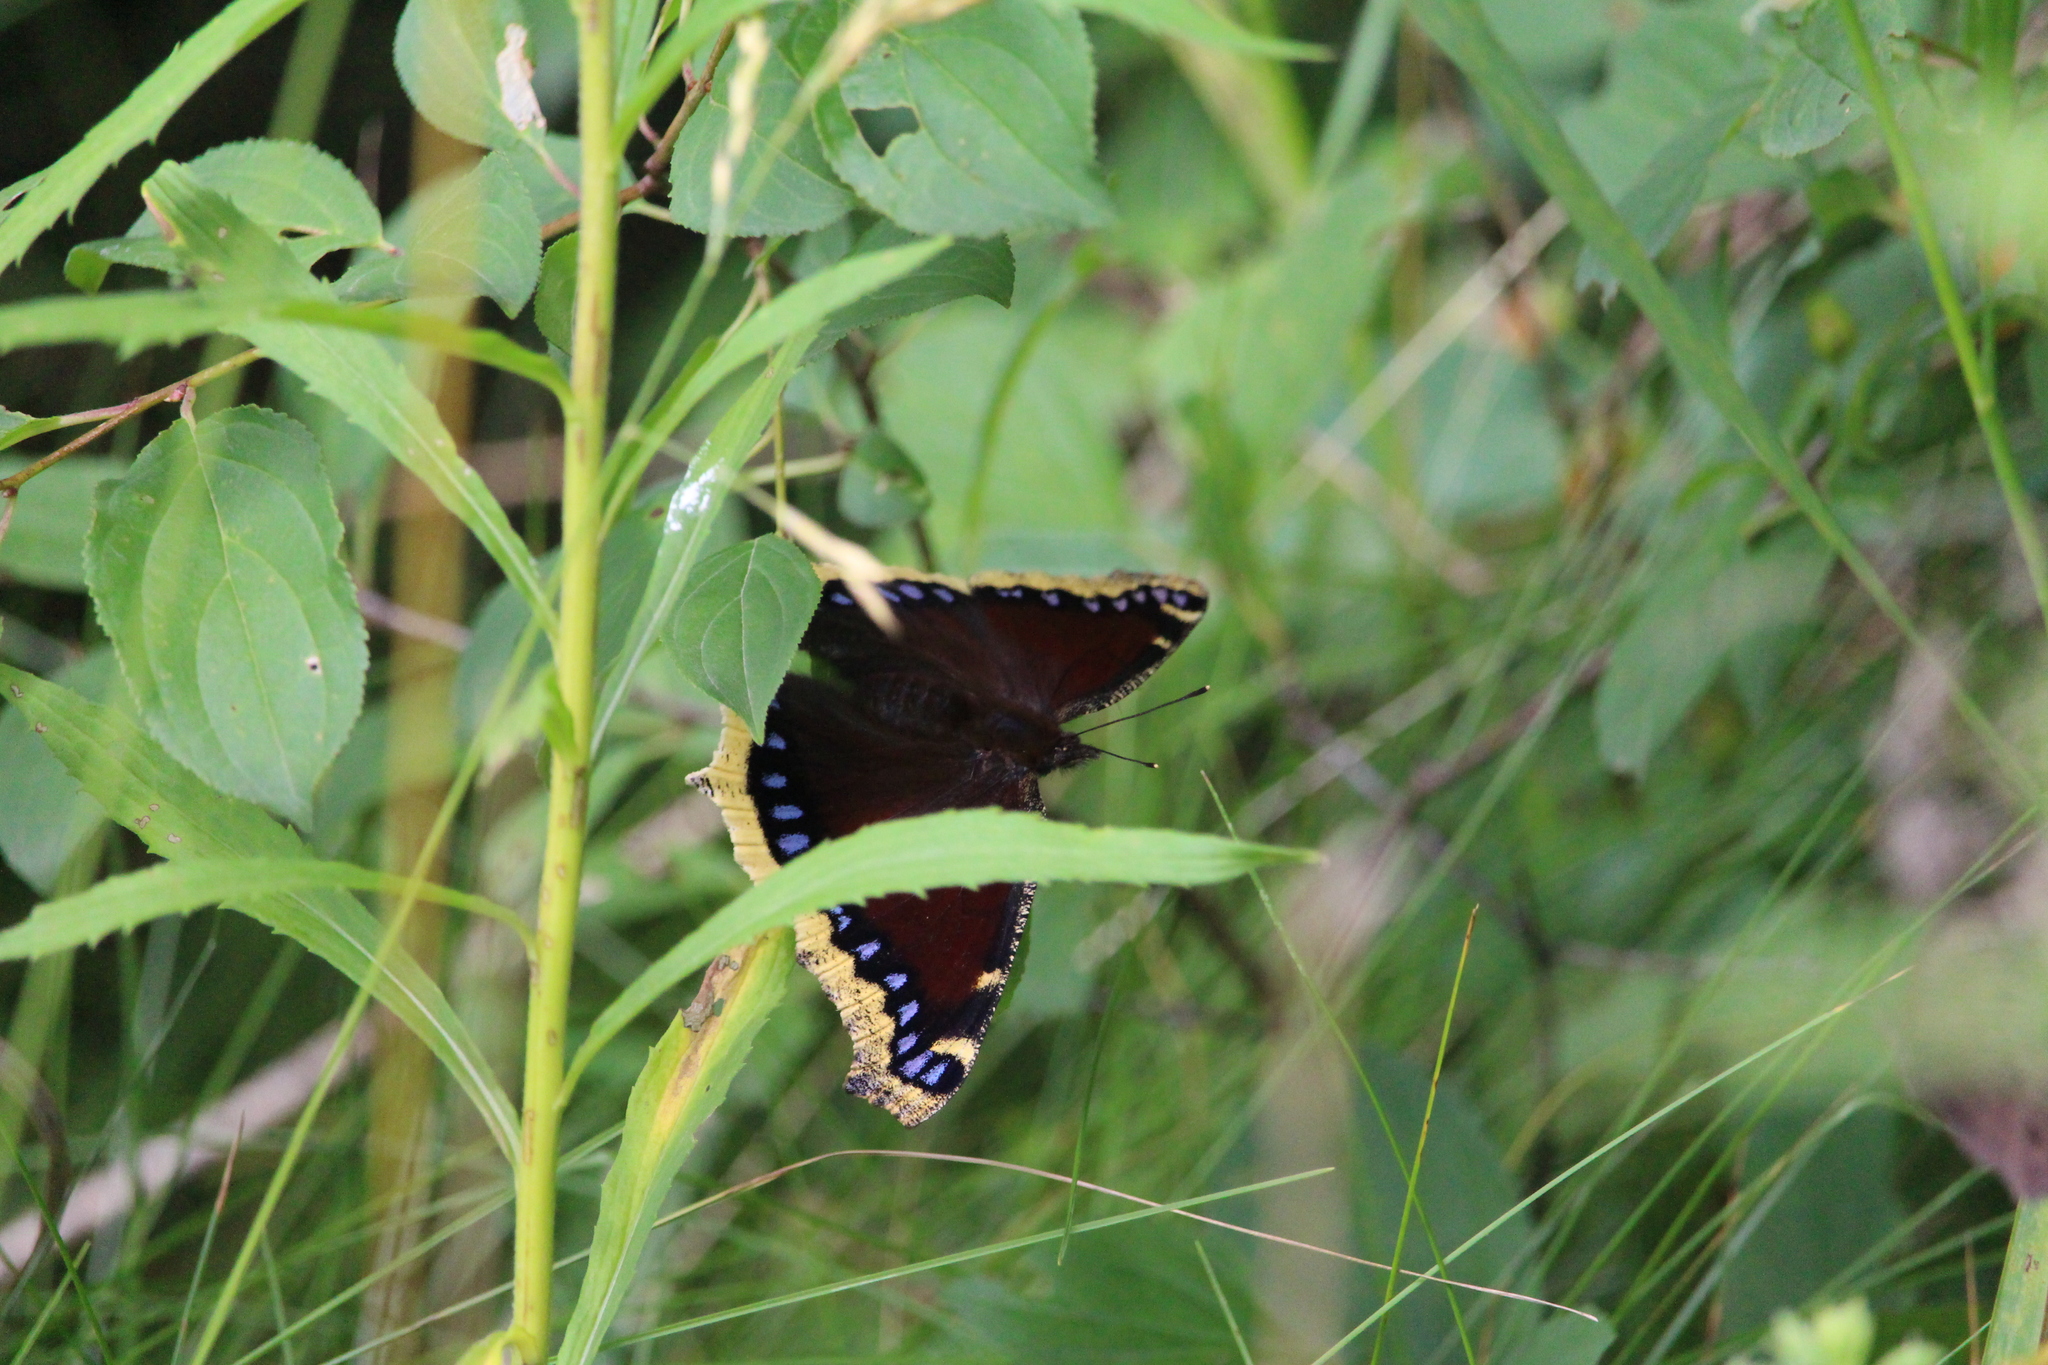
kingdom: Animalia
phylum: Arthropoda
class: Insecta
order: Lepidoptera
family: Nymphalidae
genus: Nymphalis
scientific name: Nymphalis antiopa
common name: Camberwell beauty
